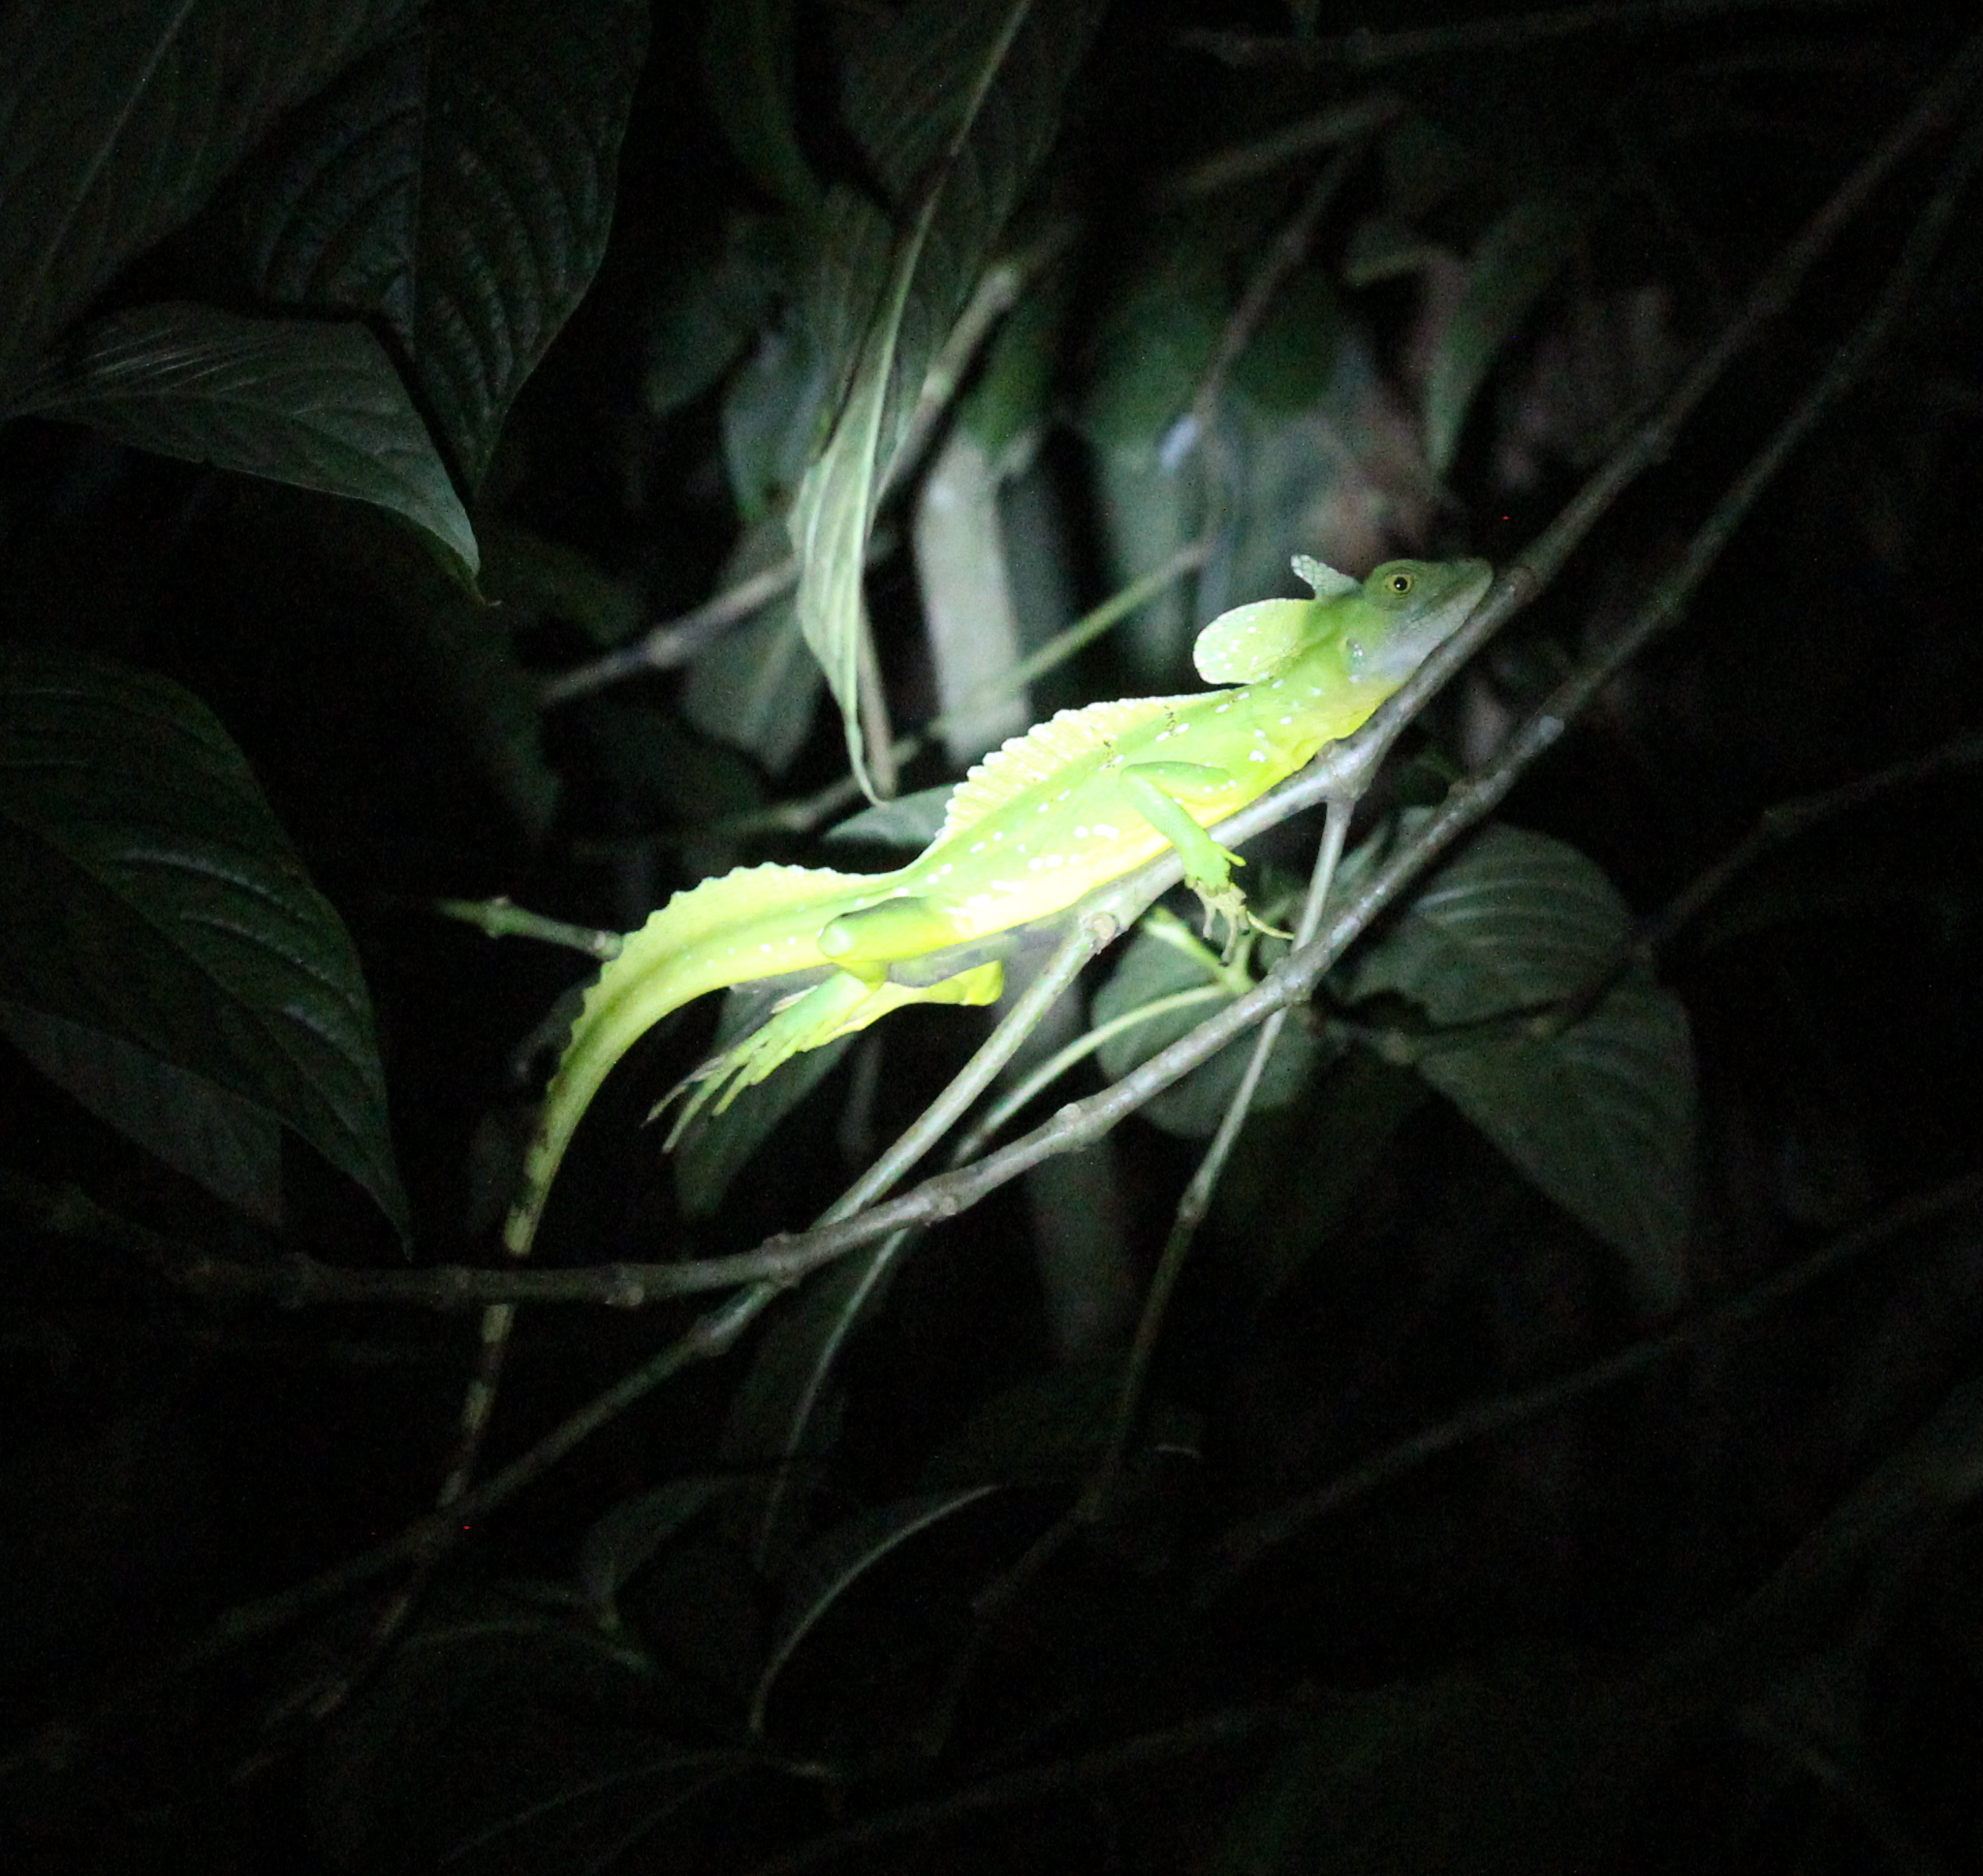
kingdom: Animalia
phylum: Chordata
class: Squamata
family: Corytophanidae
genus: Basiliscus
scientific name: Basiliscus plumifrons
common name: Green basilisk
